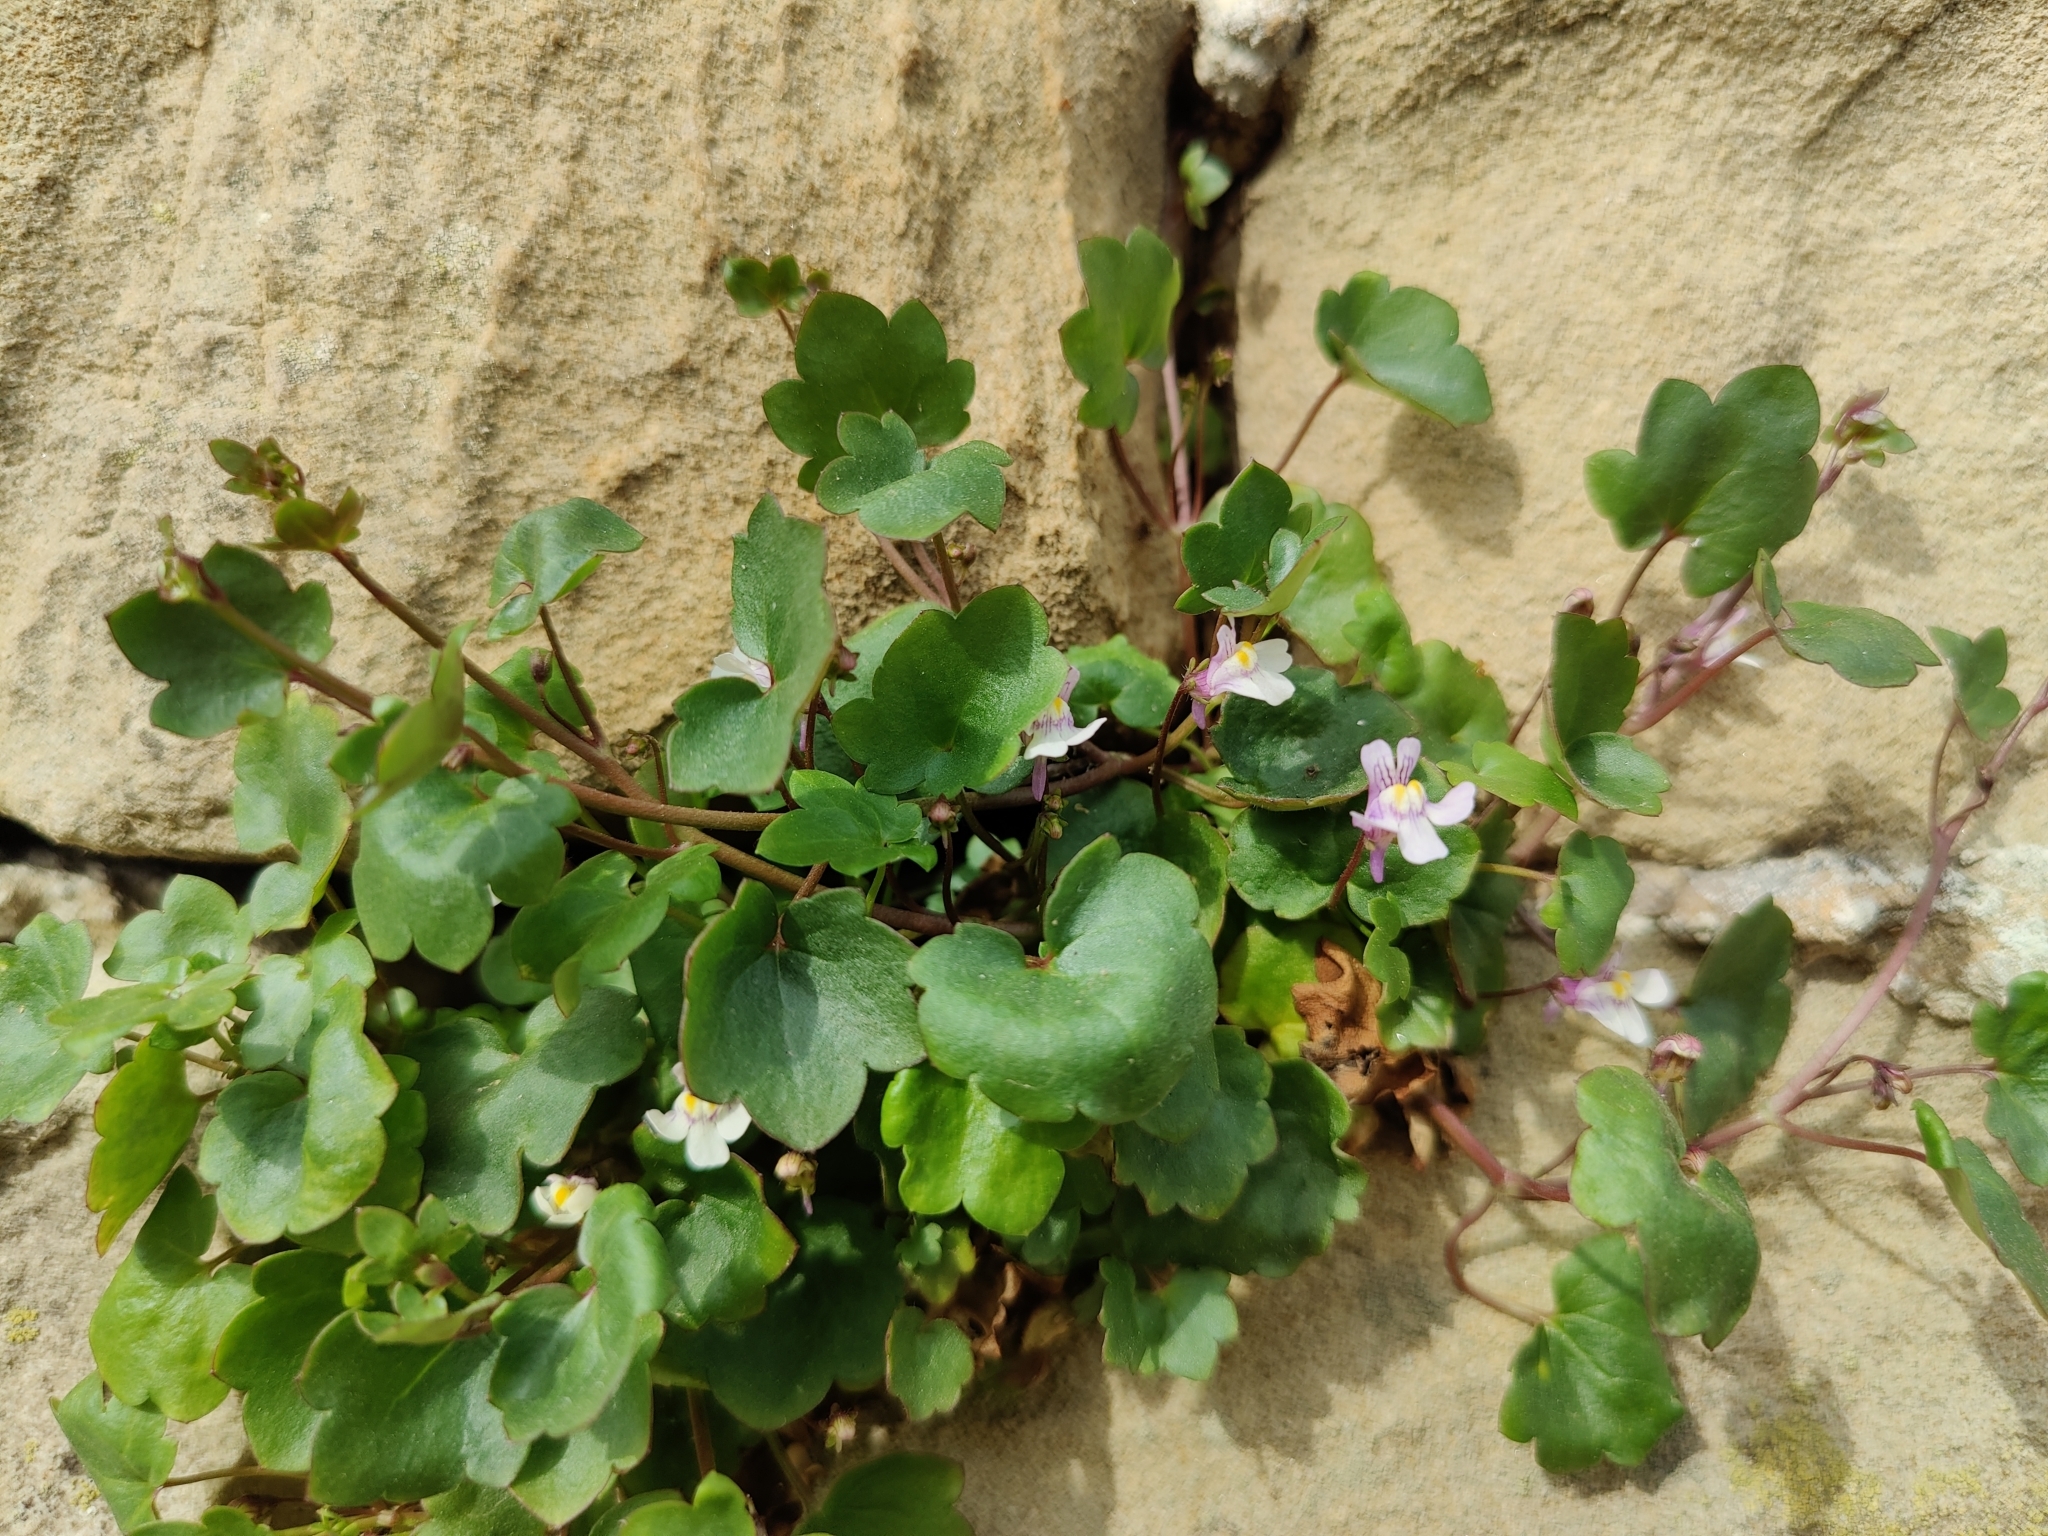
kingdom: Plantae
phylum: Tracheophyta
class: Magnoliopsida
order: Lamiales
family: Plantaginaceae
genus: Cymbalaria
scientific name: Cymbalaria muralis
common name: Ivy-leaved toadflax
